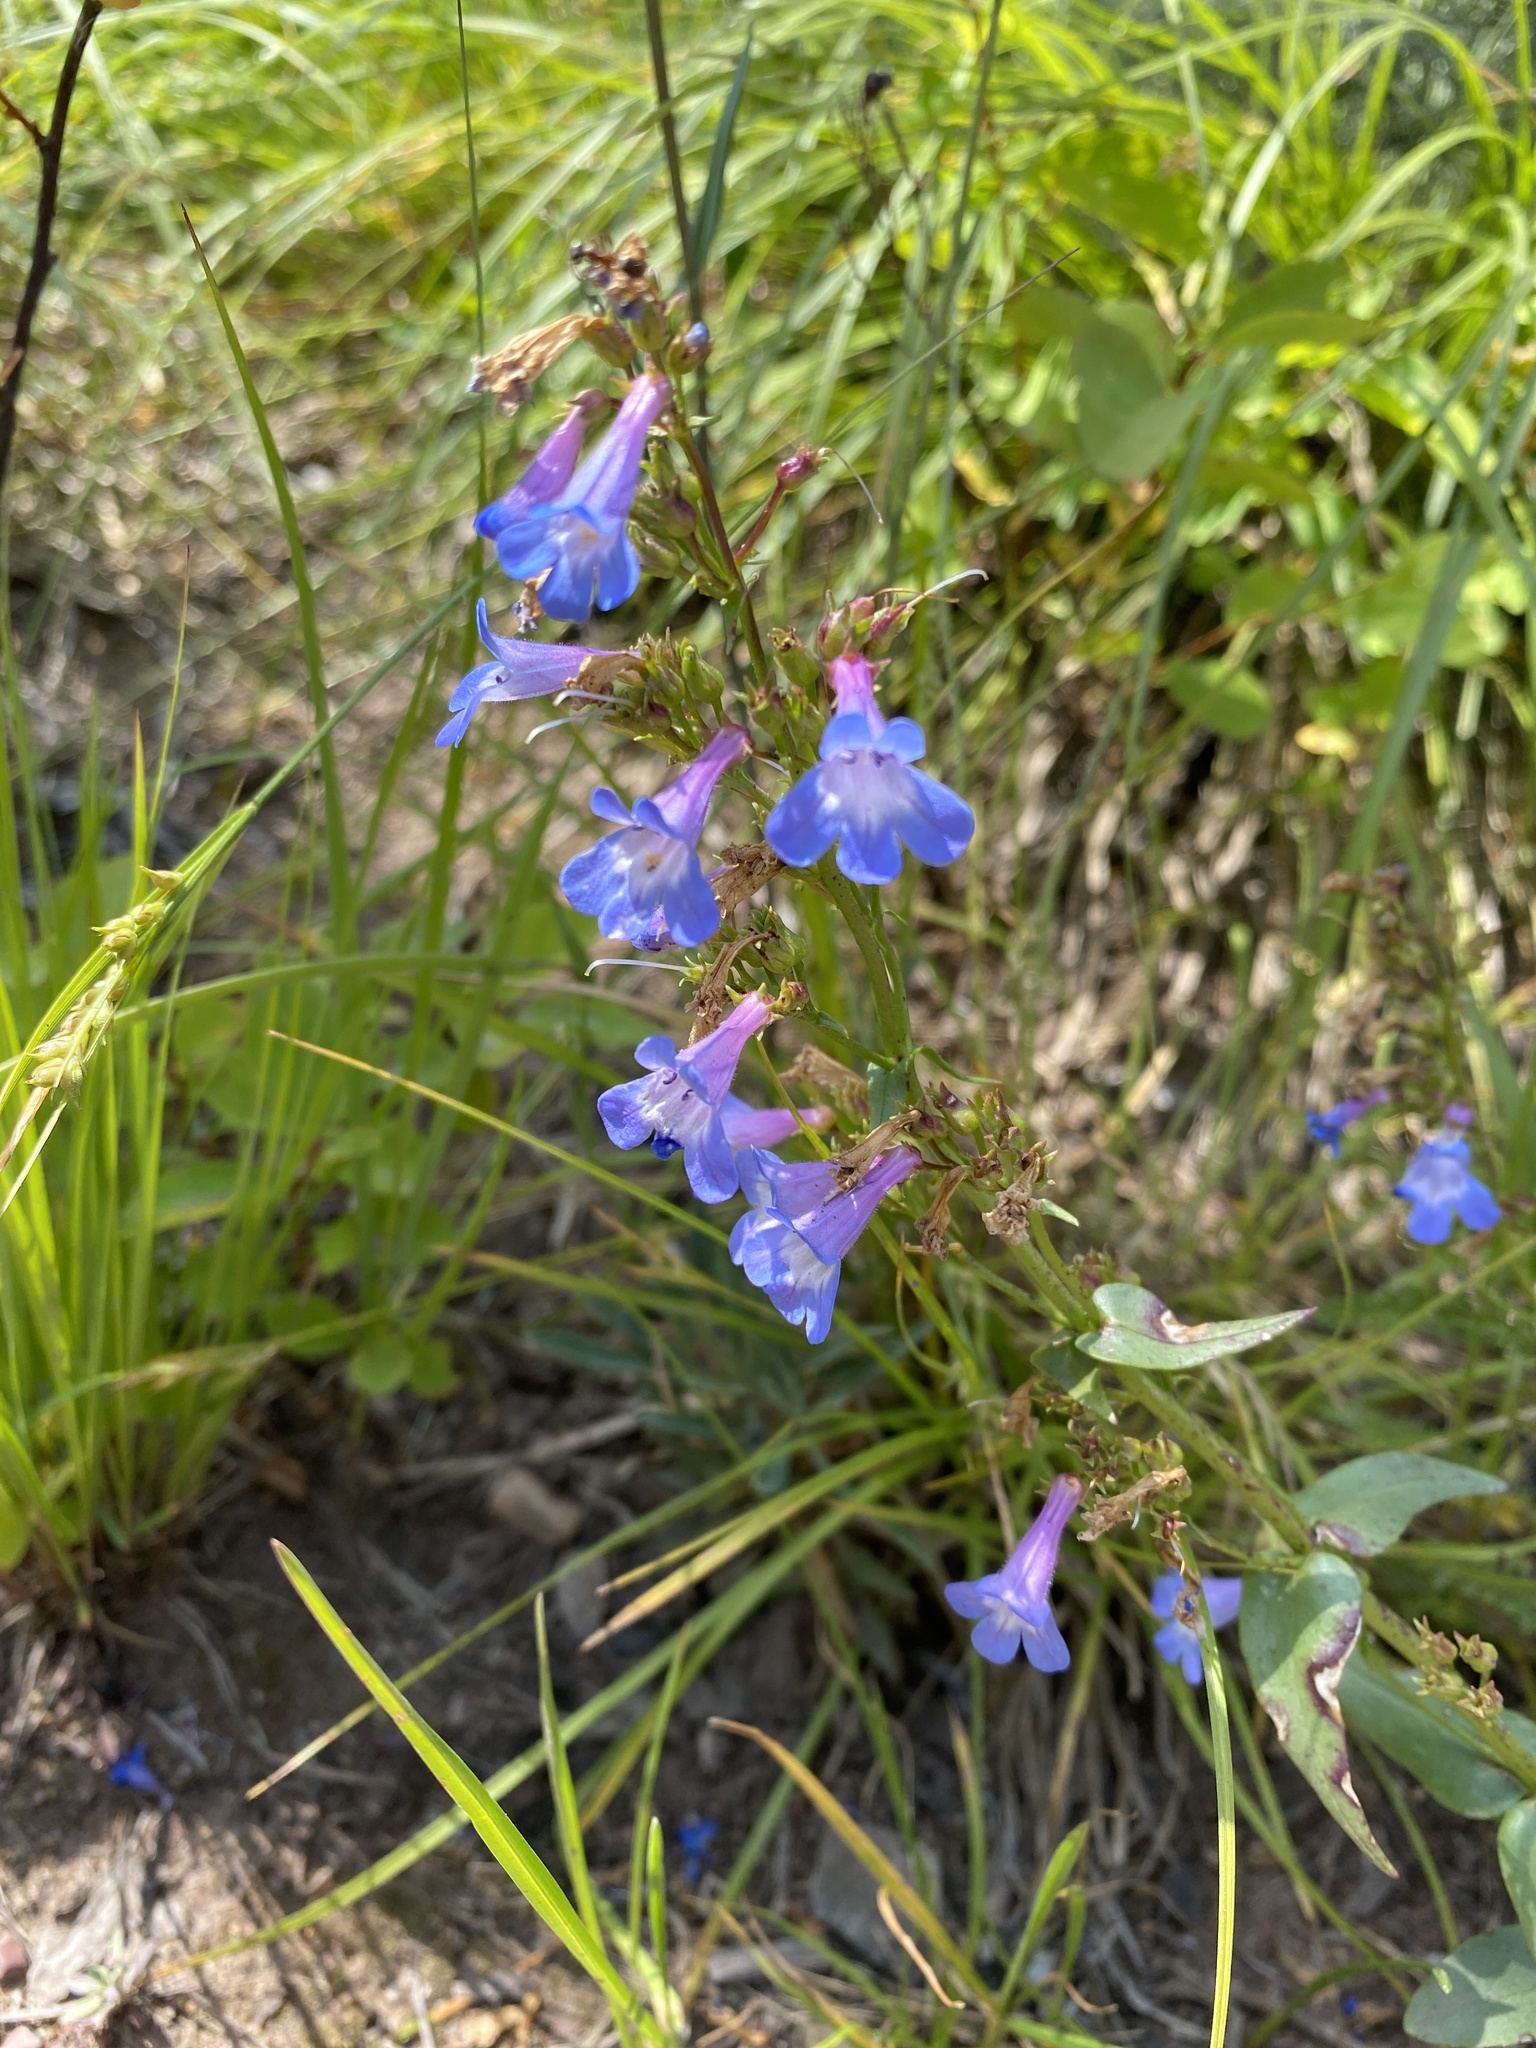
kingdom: Plantae
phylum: Tracheophyta
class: Magnoliopsida
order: Lamiales
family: Plantaginaceae
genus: Penstemon
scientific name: Penstemon albertinus
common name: Alberta beardtongue
